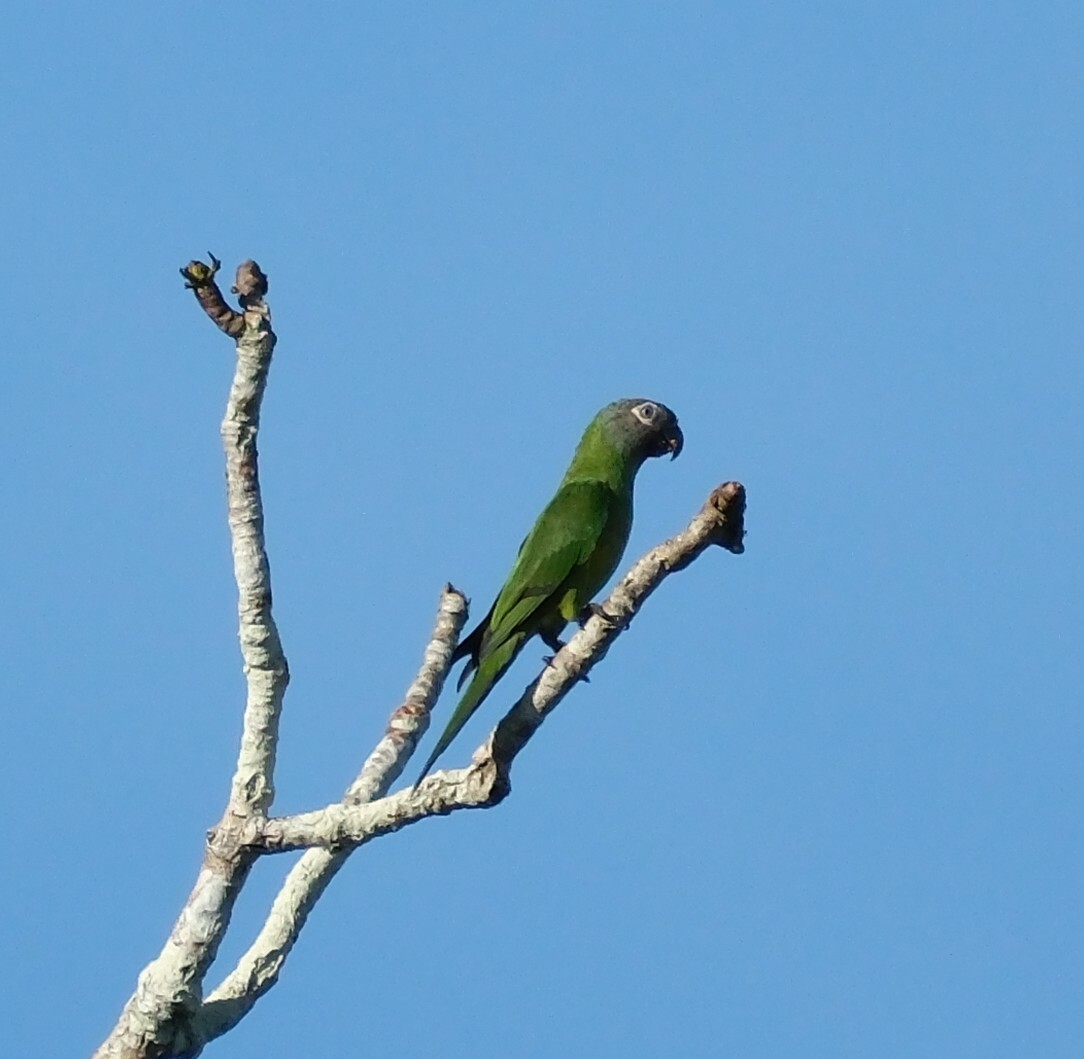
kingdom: Animalia
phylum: Chordata
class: Aves
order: Psittaciformes
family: Psittacidae
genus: Aratinga
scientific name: Aratinga weddellii
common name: Dusky-headed parakeet
